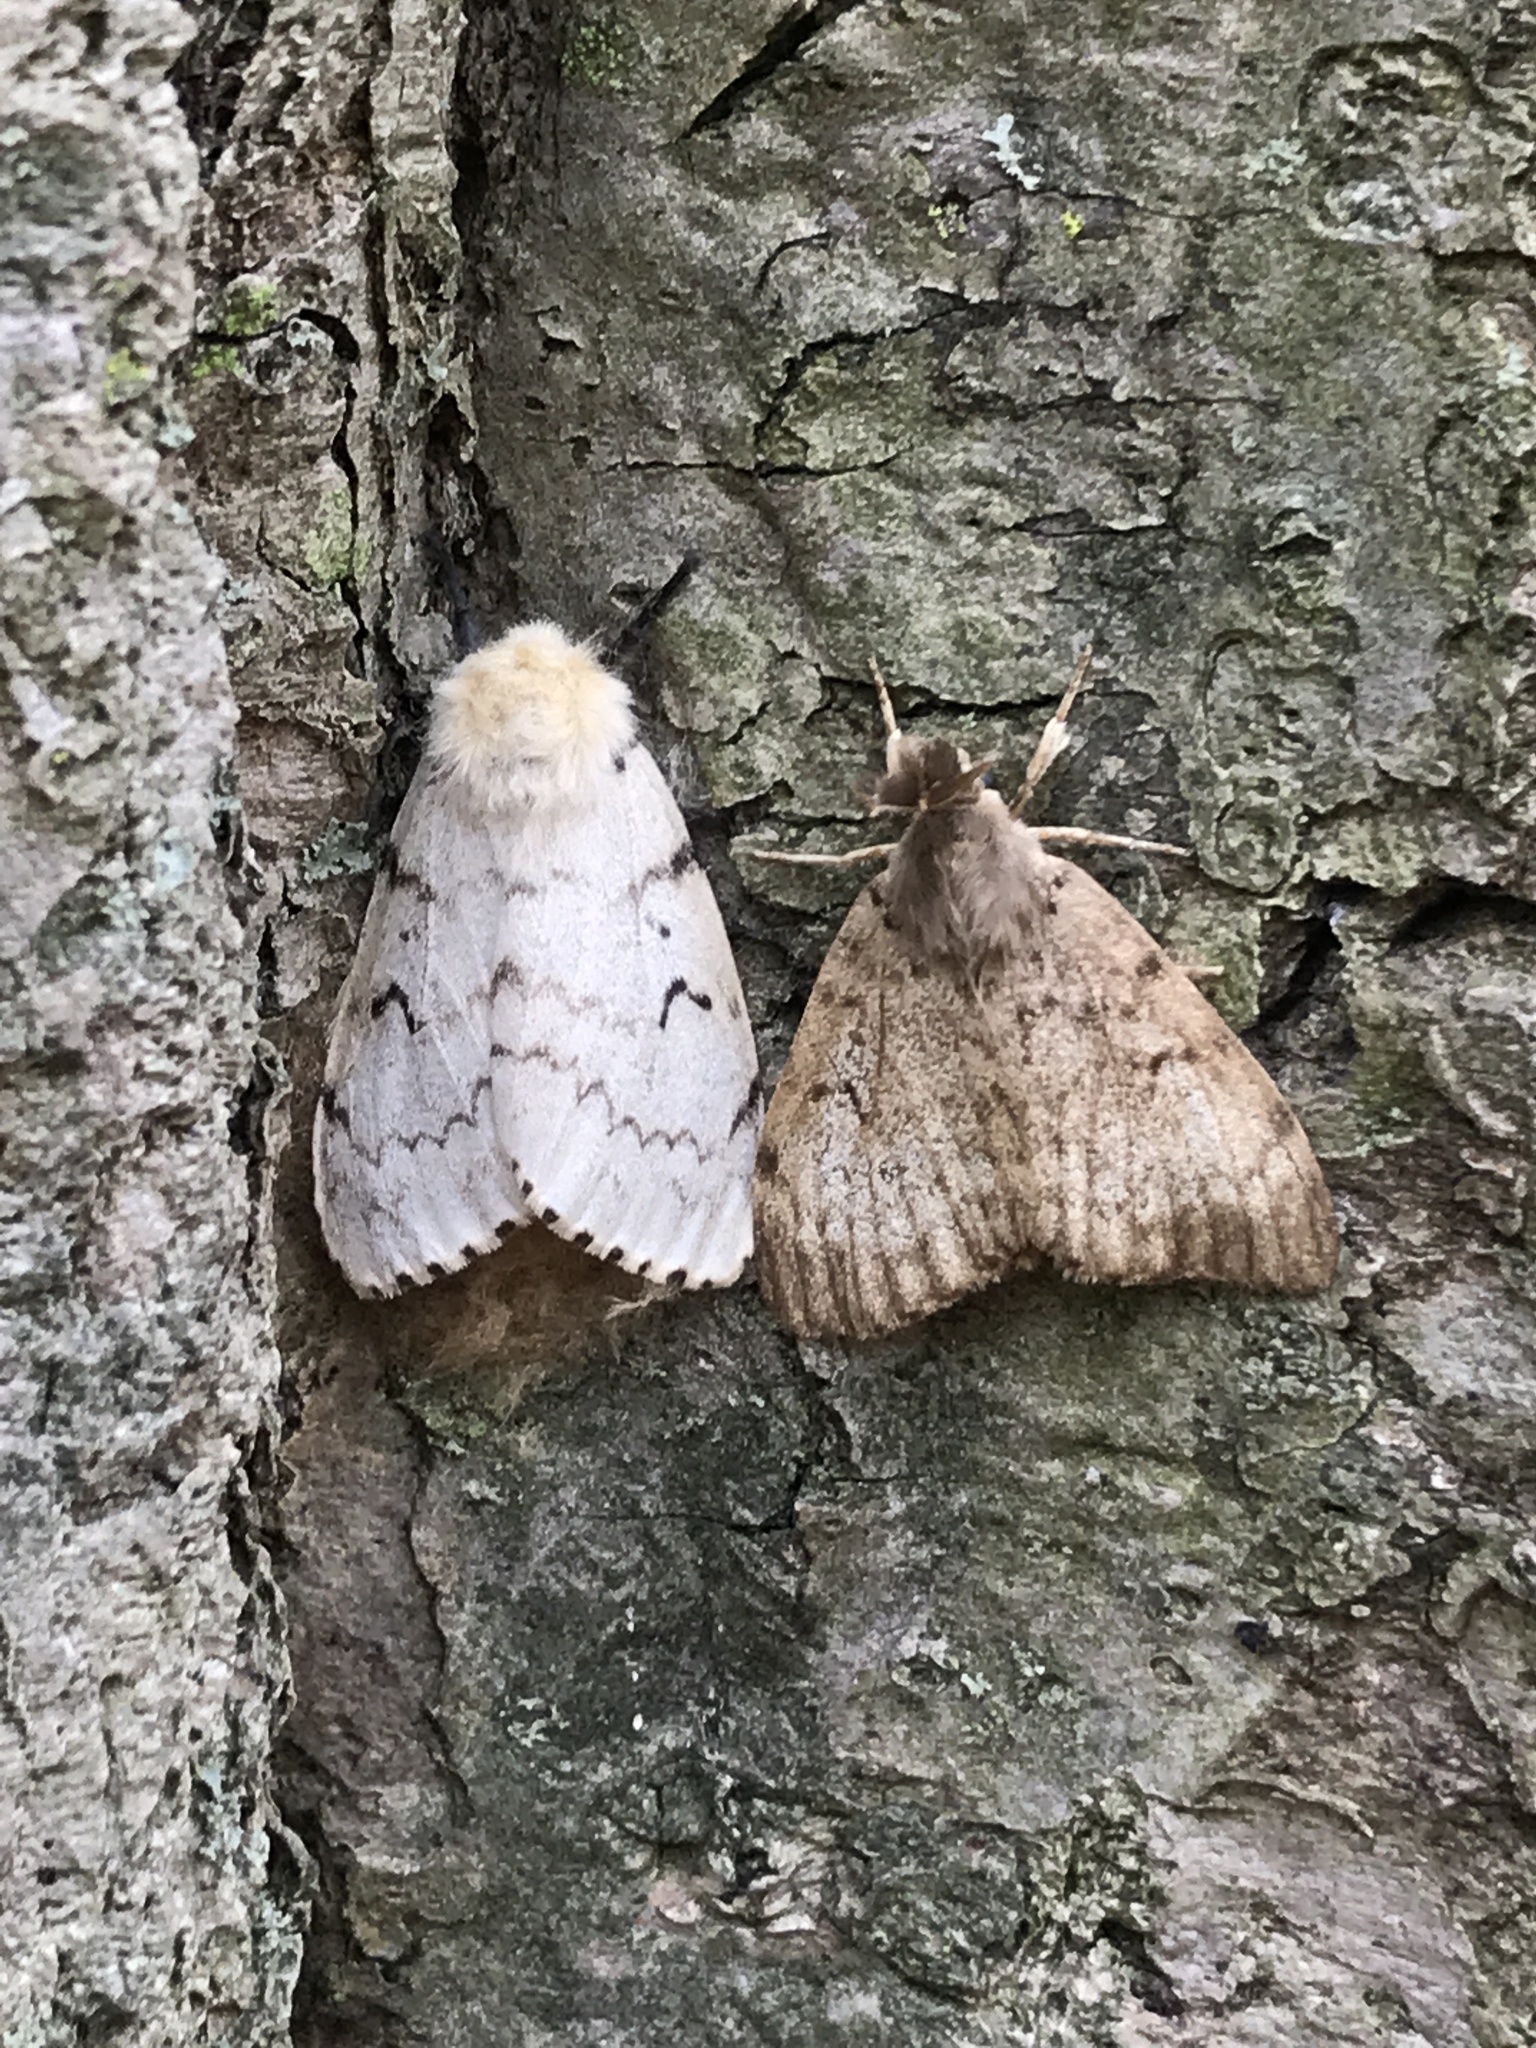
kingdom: Animalia
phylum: Arthropoda
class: Insecta
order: Lepidoptera
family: Erebidae
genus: Lymantria
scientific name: Lymantria dispar
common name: Gypsy moth
